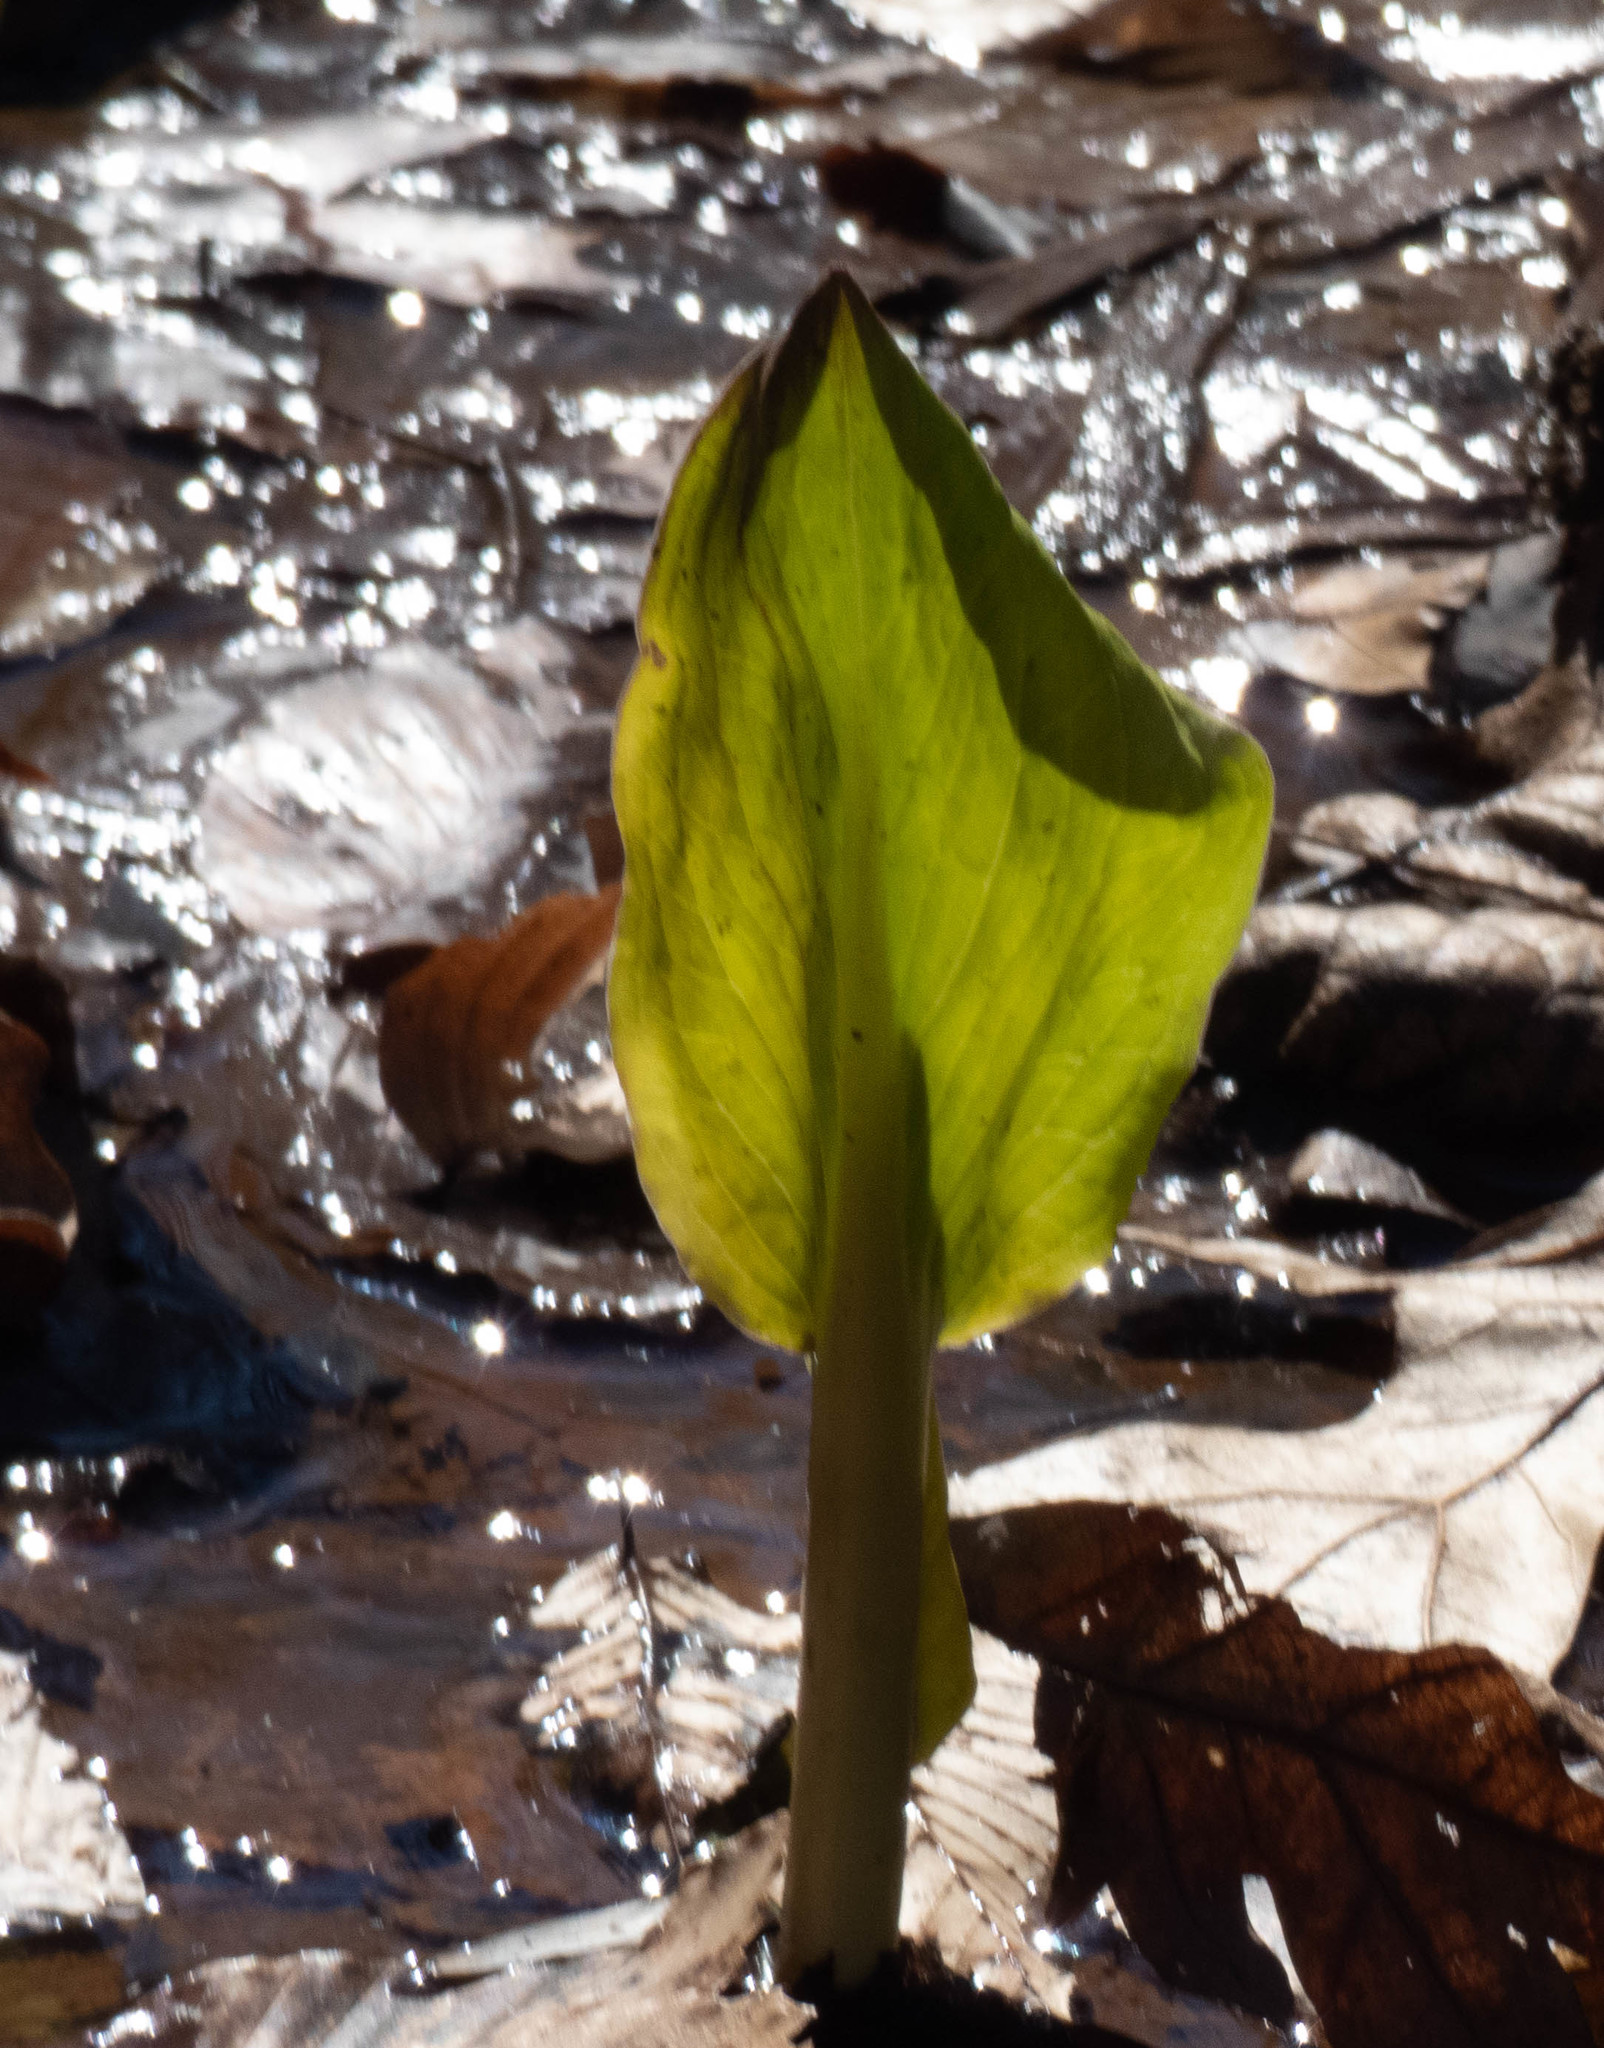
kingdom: Plantae
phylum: Tracheophyta
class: Liliopsida
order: Alismatales
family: Araceae
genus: Symplocarpus
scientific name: Symplocarpus foetidus
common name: Eastern skunk cabbage
